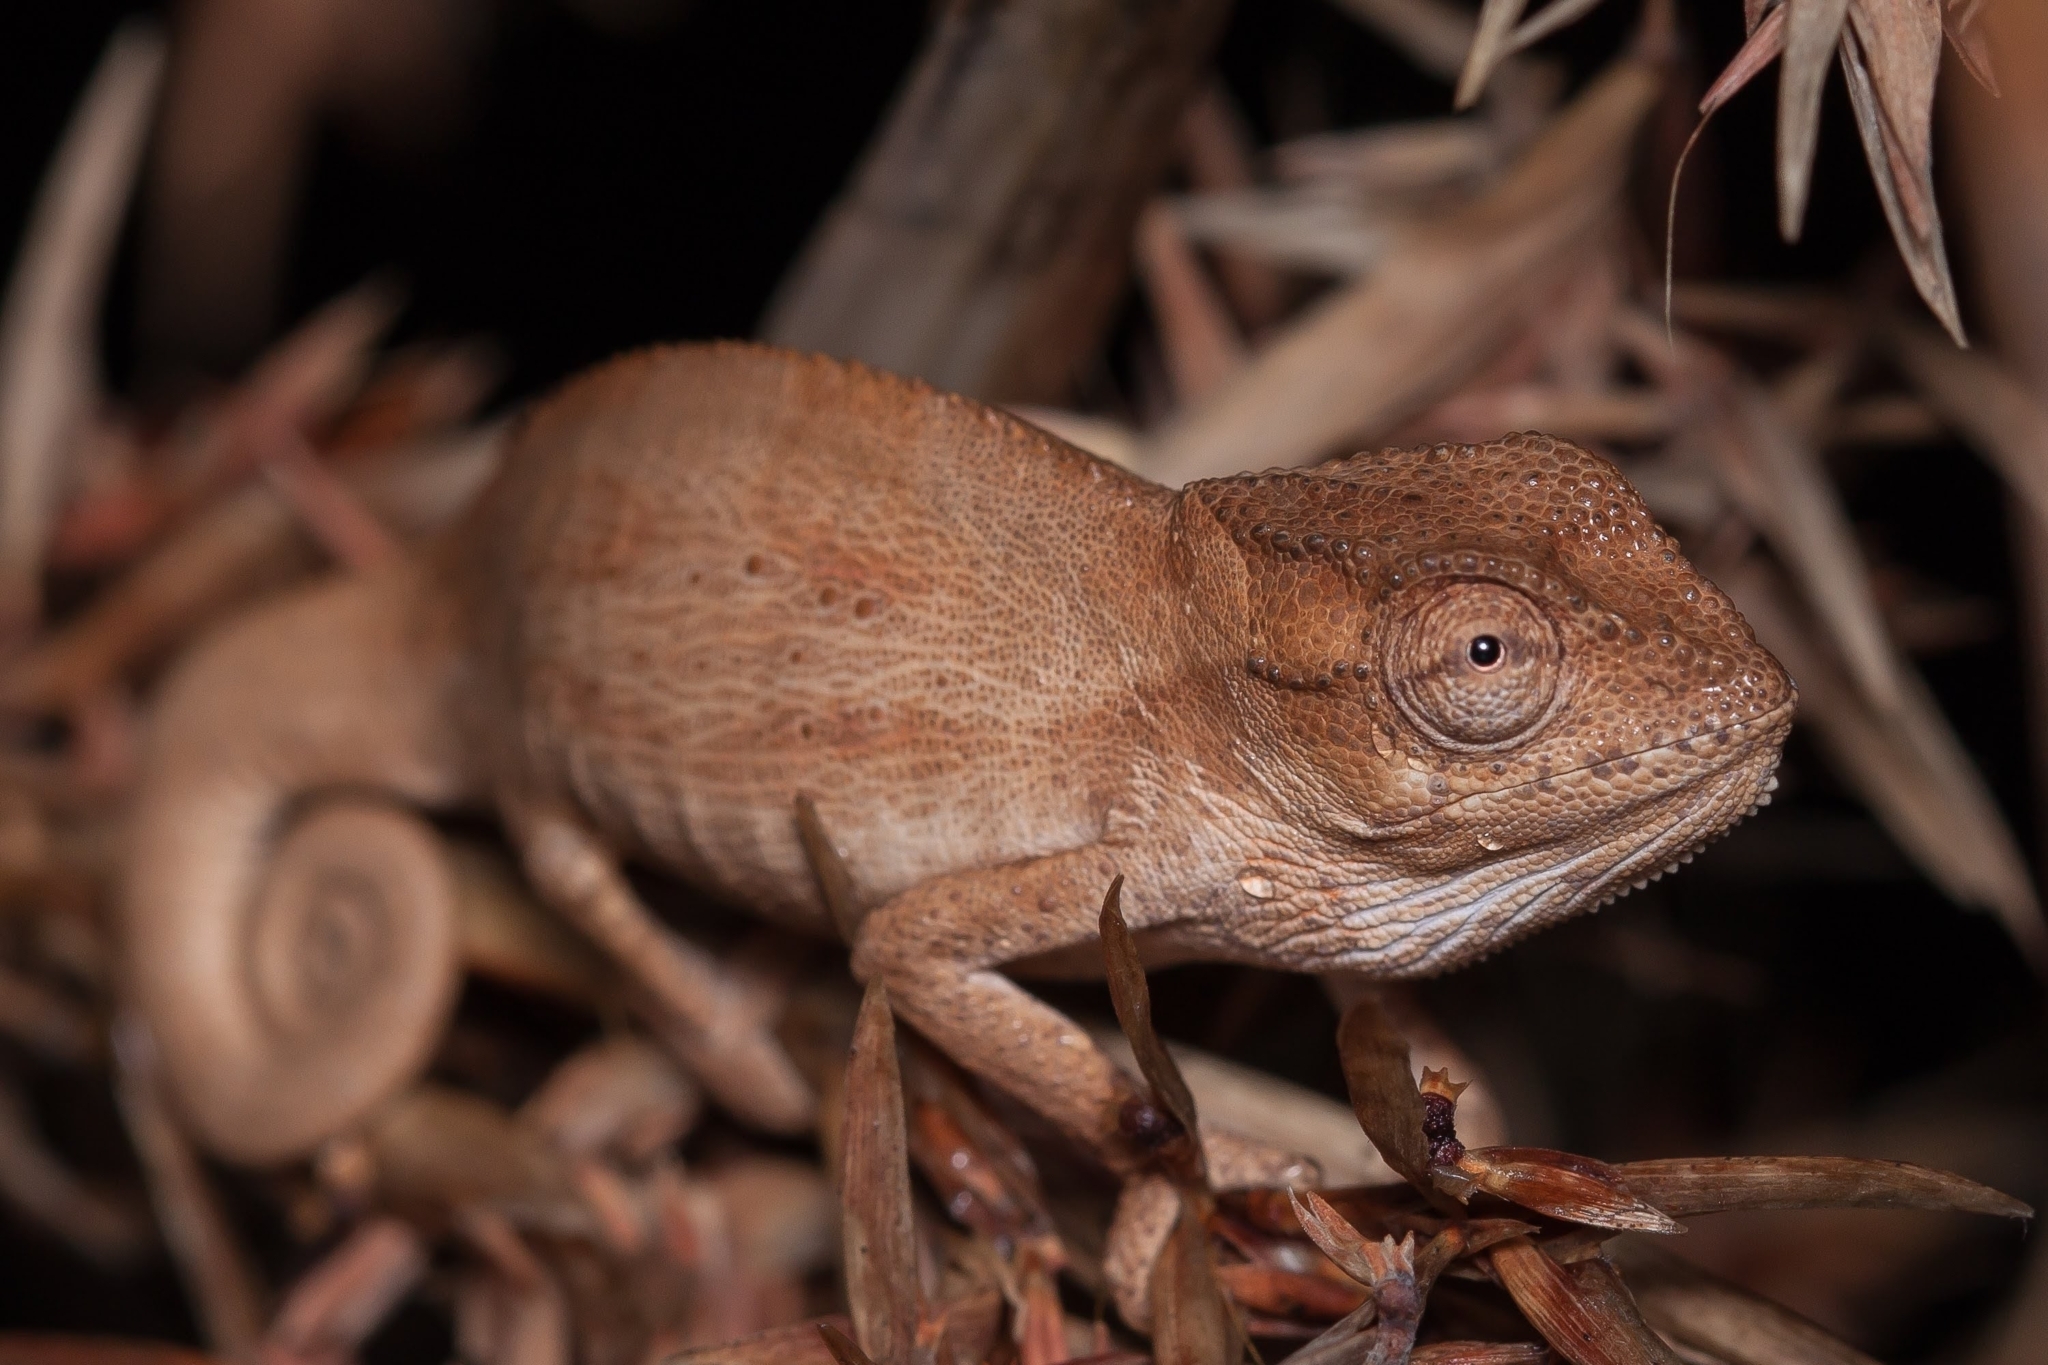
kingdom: Animalia
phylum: Chordata
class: Squamata
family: Chamaeleonidae
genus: Bradypodion
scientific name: Bradypodion kentanicum
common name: Kentani dwarf chameleon
